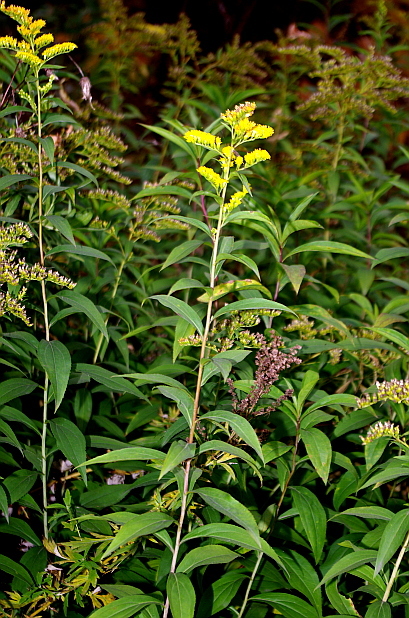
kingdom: Plantae
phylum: Tracheophyta
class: Magnoliopsida
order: Asterales
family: Asteraceae
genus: Solidago
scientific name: Solidago gigantea
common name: Giant goldenrod
